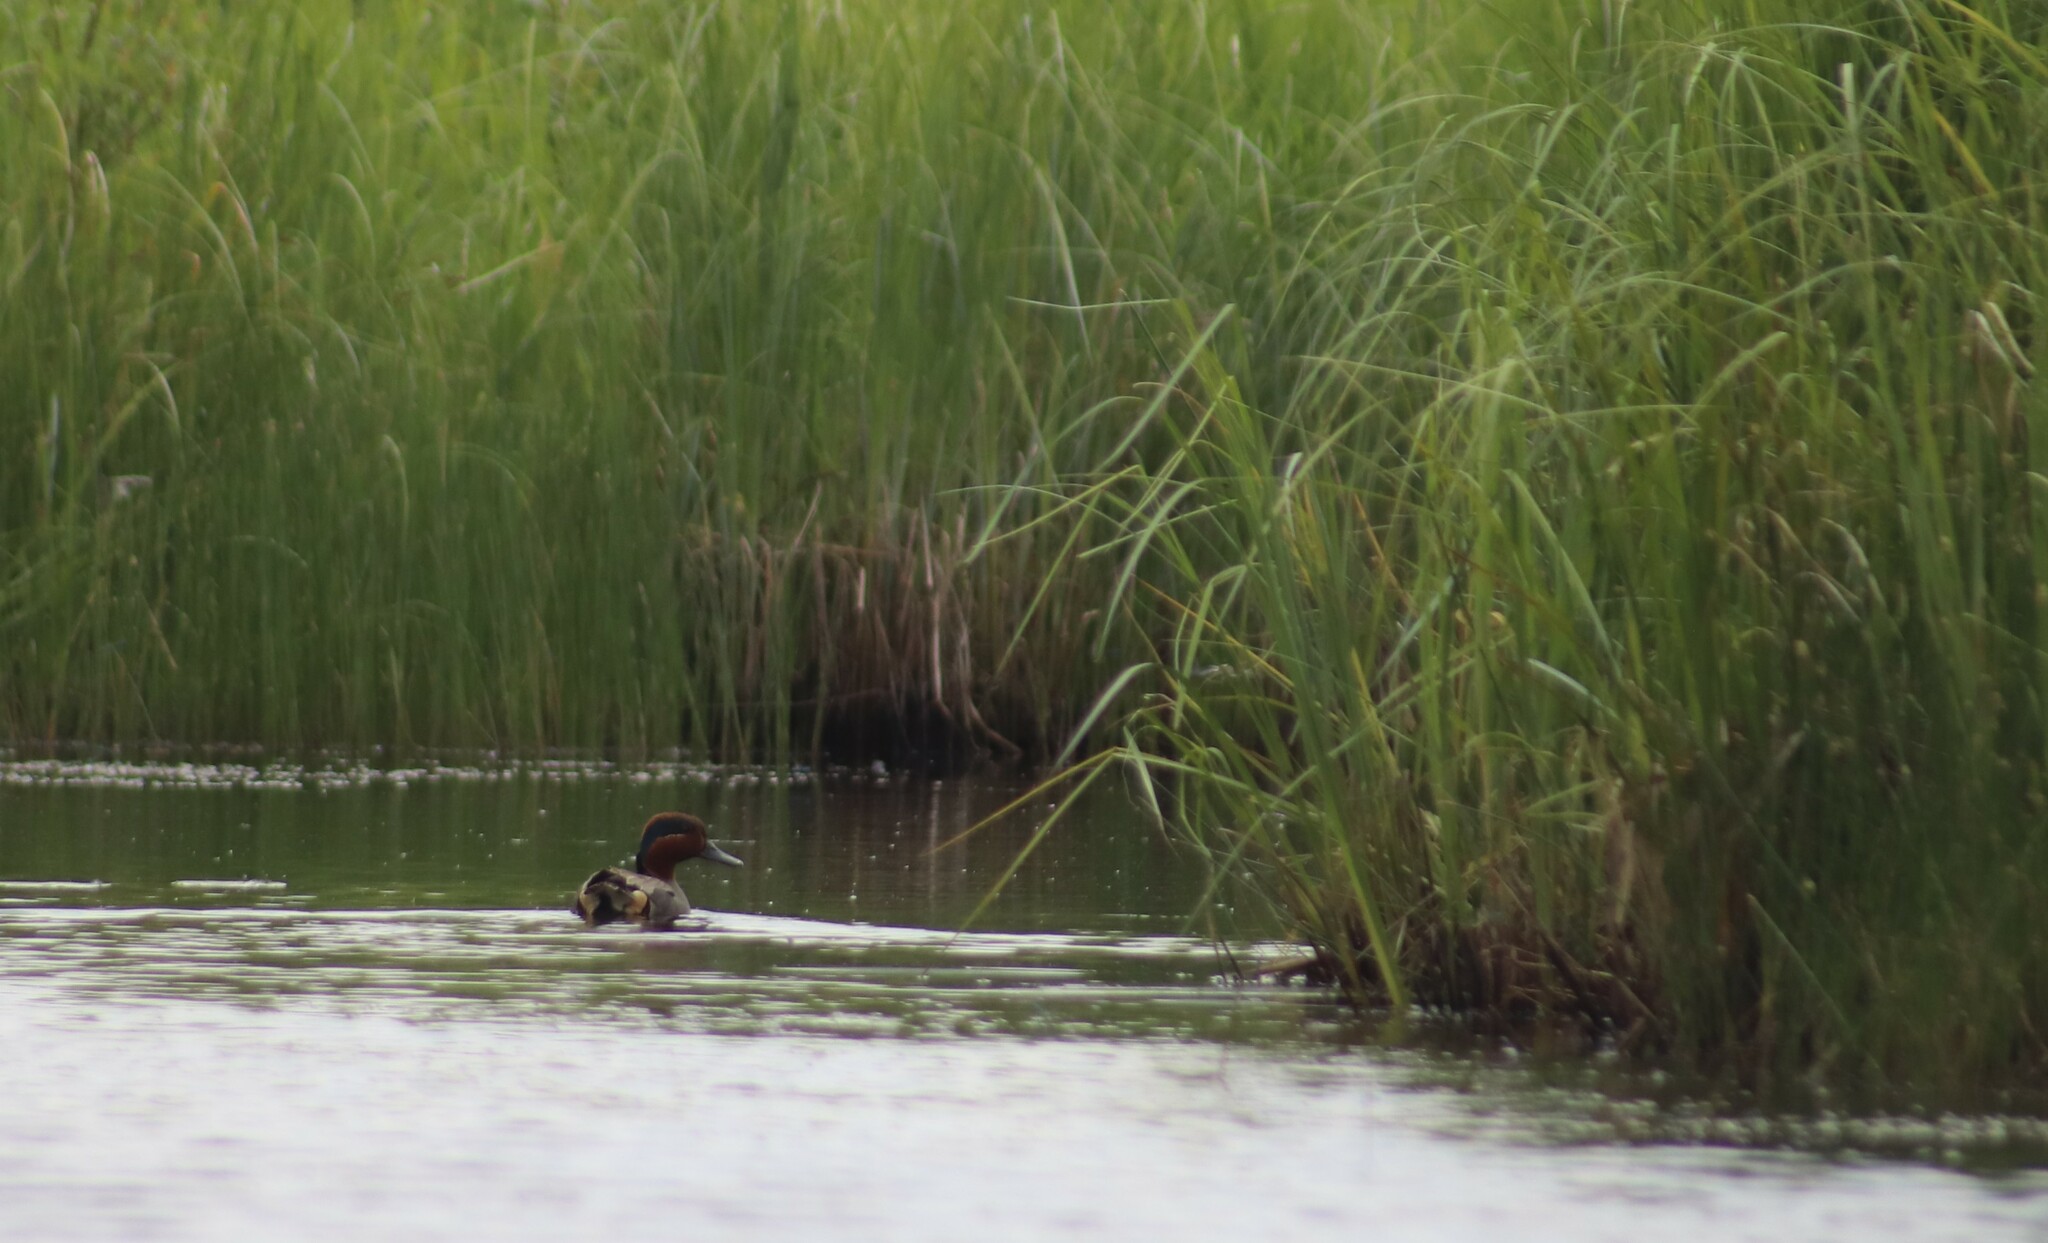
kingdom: Animalia
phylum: Chordata
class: Aves
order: Anseriformes
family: Anatidae
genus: Anas
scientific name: Anas crecca
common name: Eurasian teal
